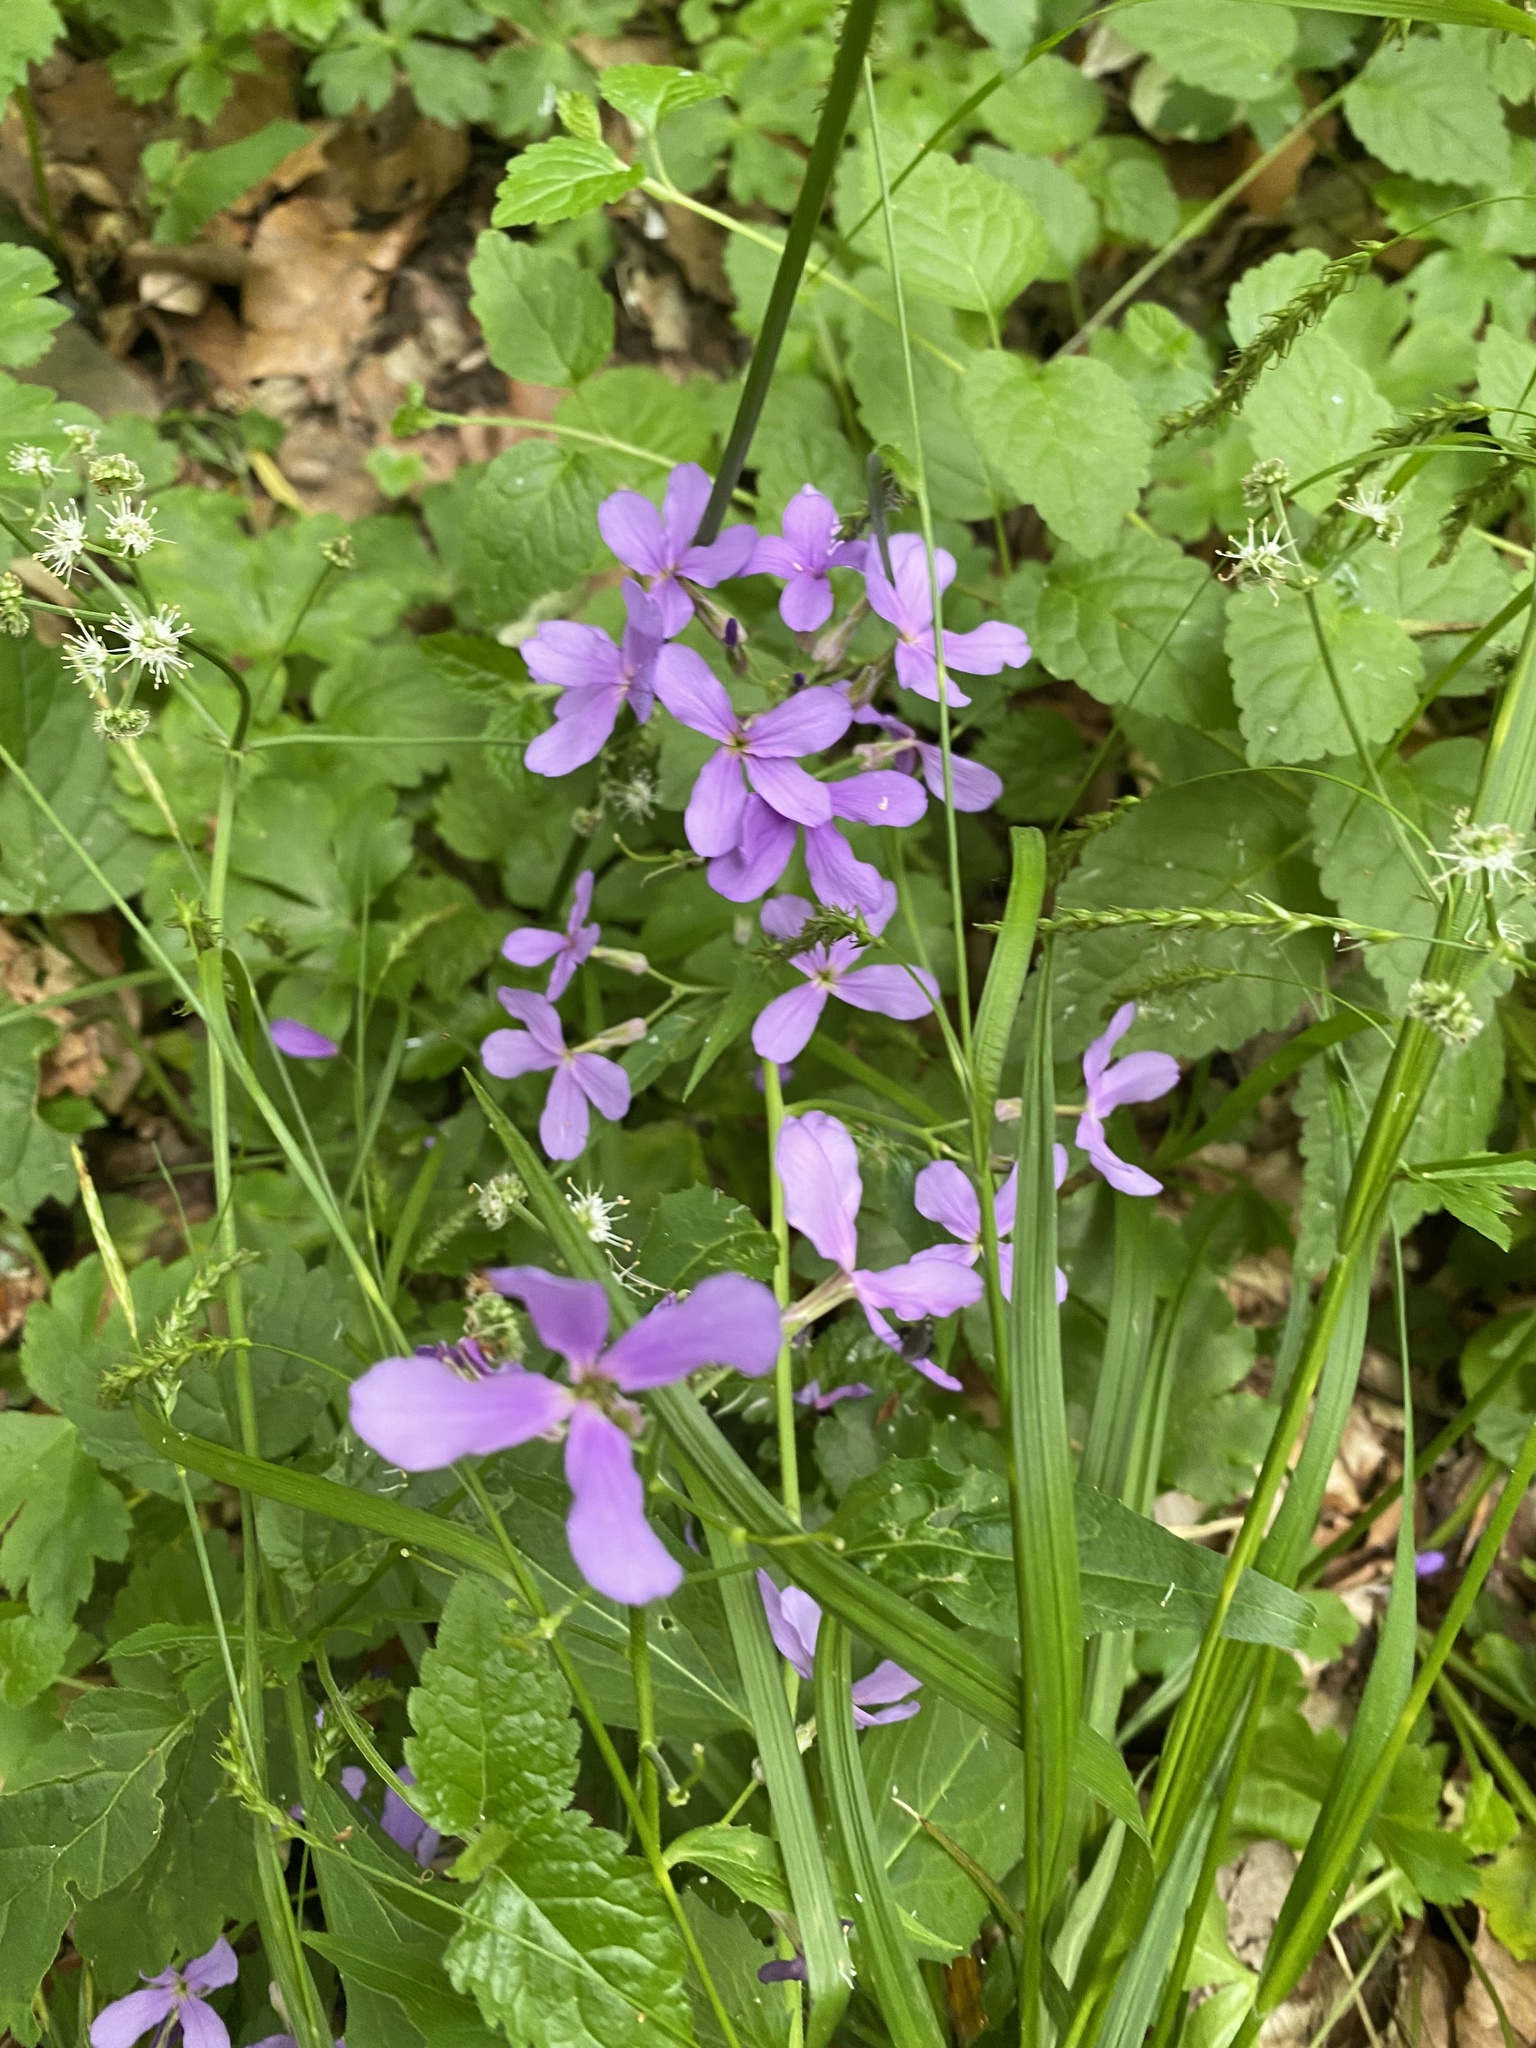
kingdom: Plantae
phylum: Tracheophyta
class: Magnoliopsida
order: Brassicales
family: Brassicaceae
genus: Hesperis
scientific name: Hesperis matronalis
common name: Dame's-violet
